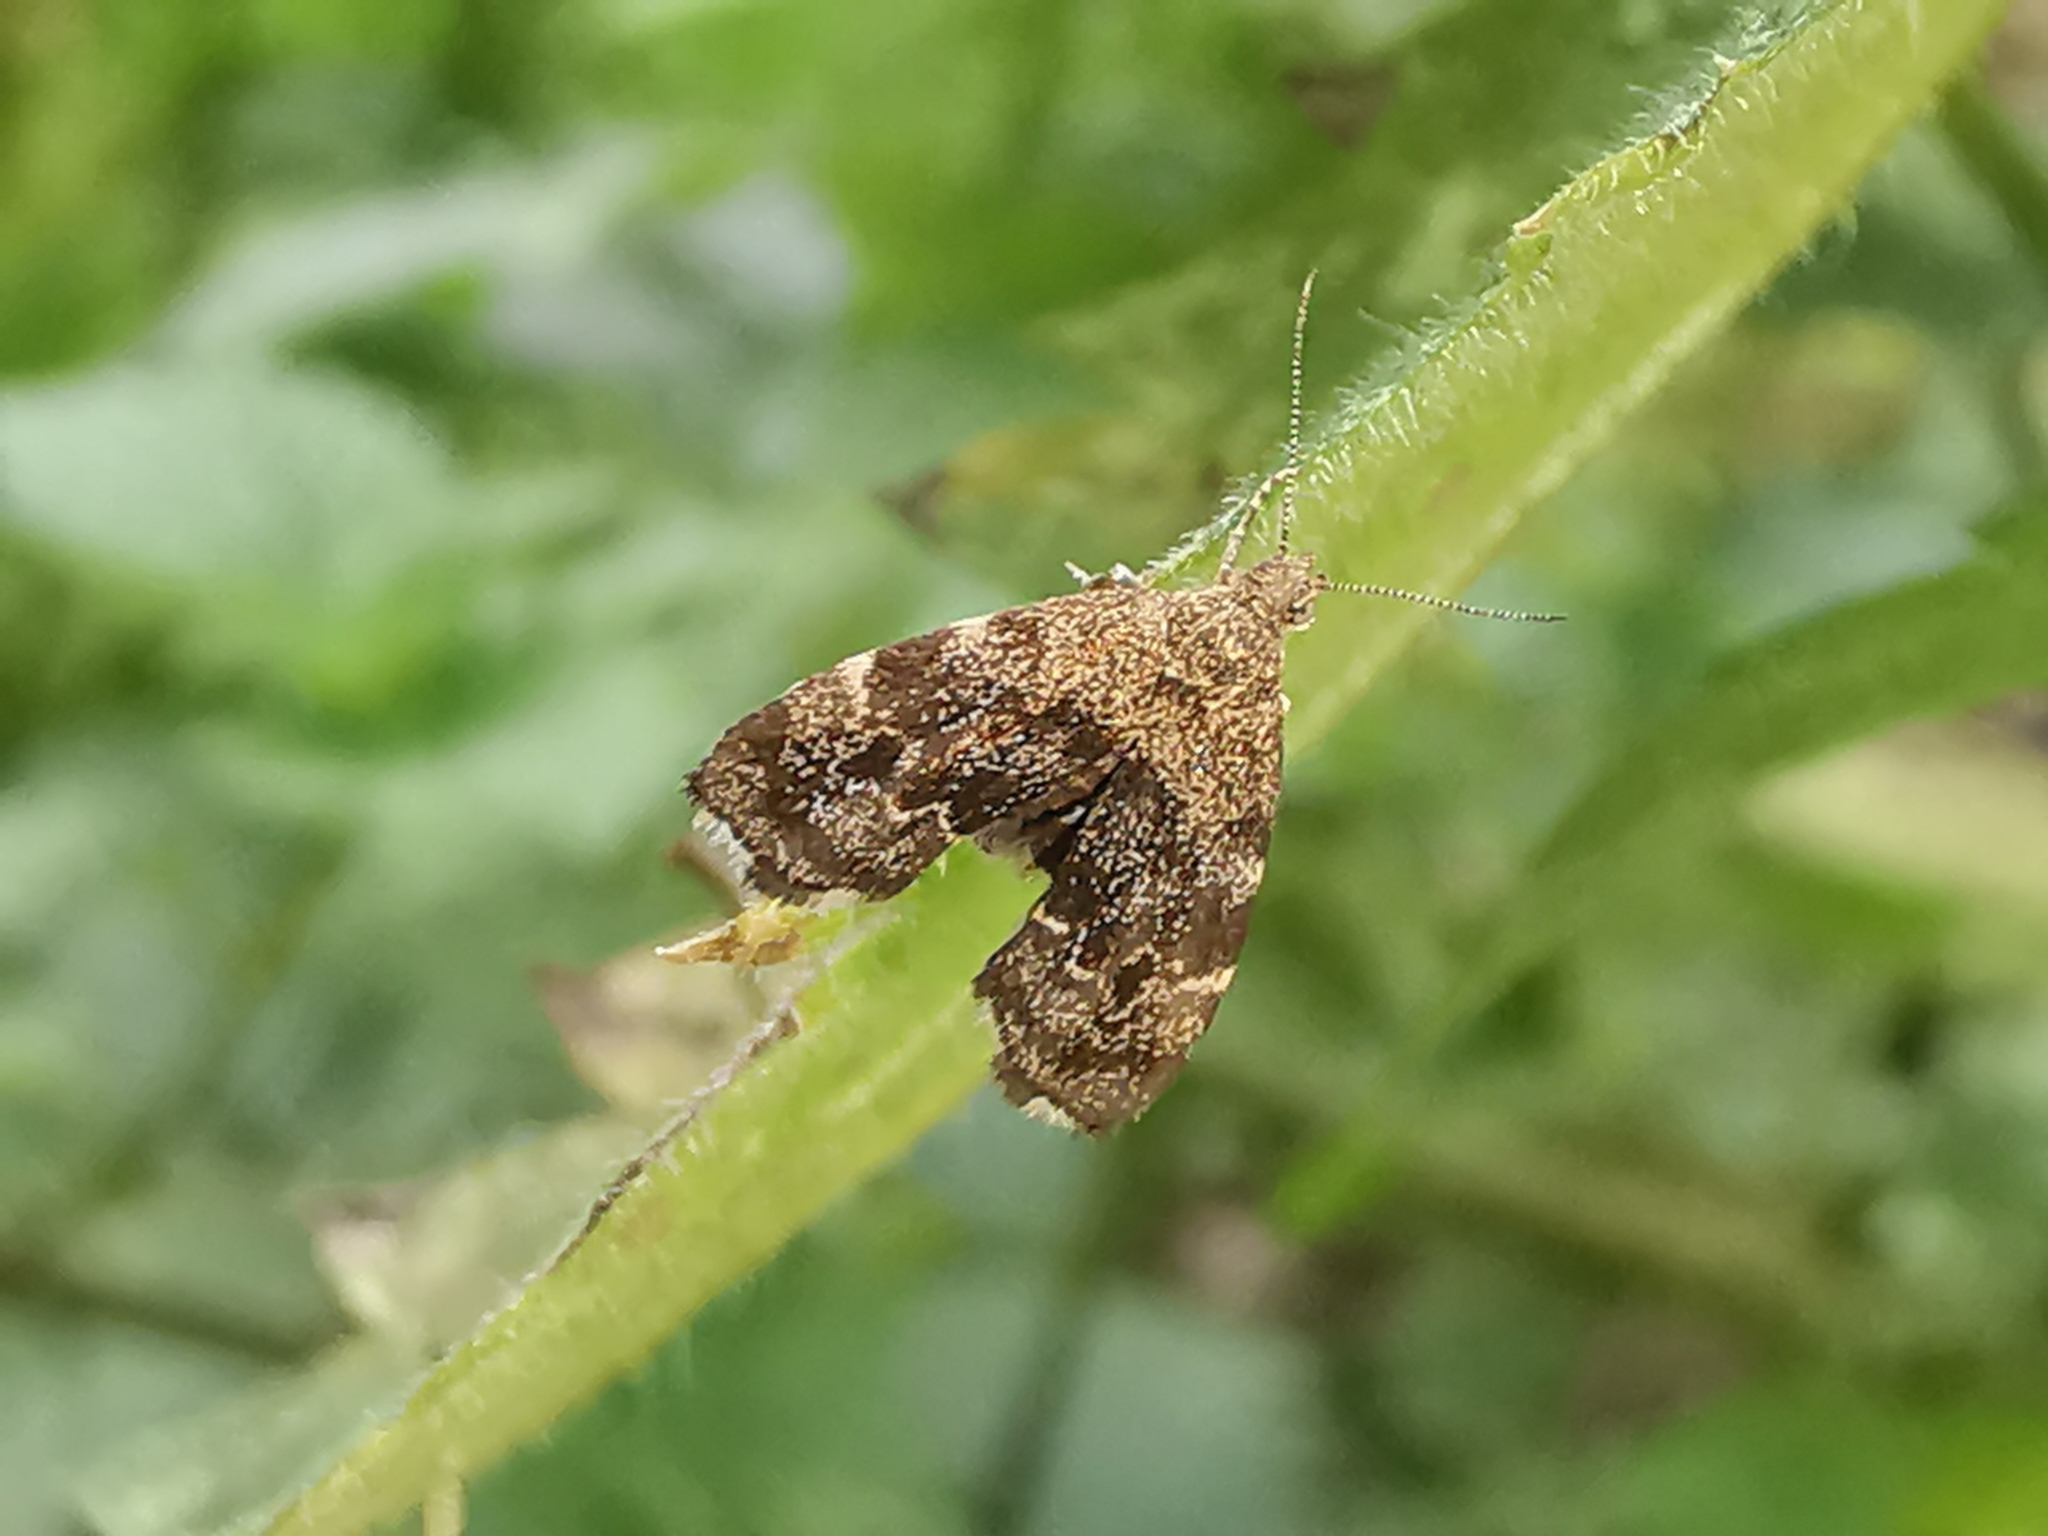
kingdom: Animalia
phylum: Arthropoda
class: Insecta
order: Lepidoptera
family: Choreutidae
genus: Anthophila
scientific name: Anthophila fabriciana
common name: Nettle-tap
